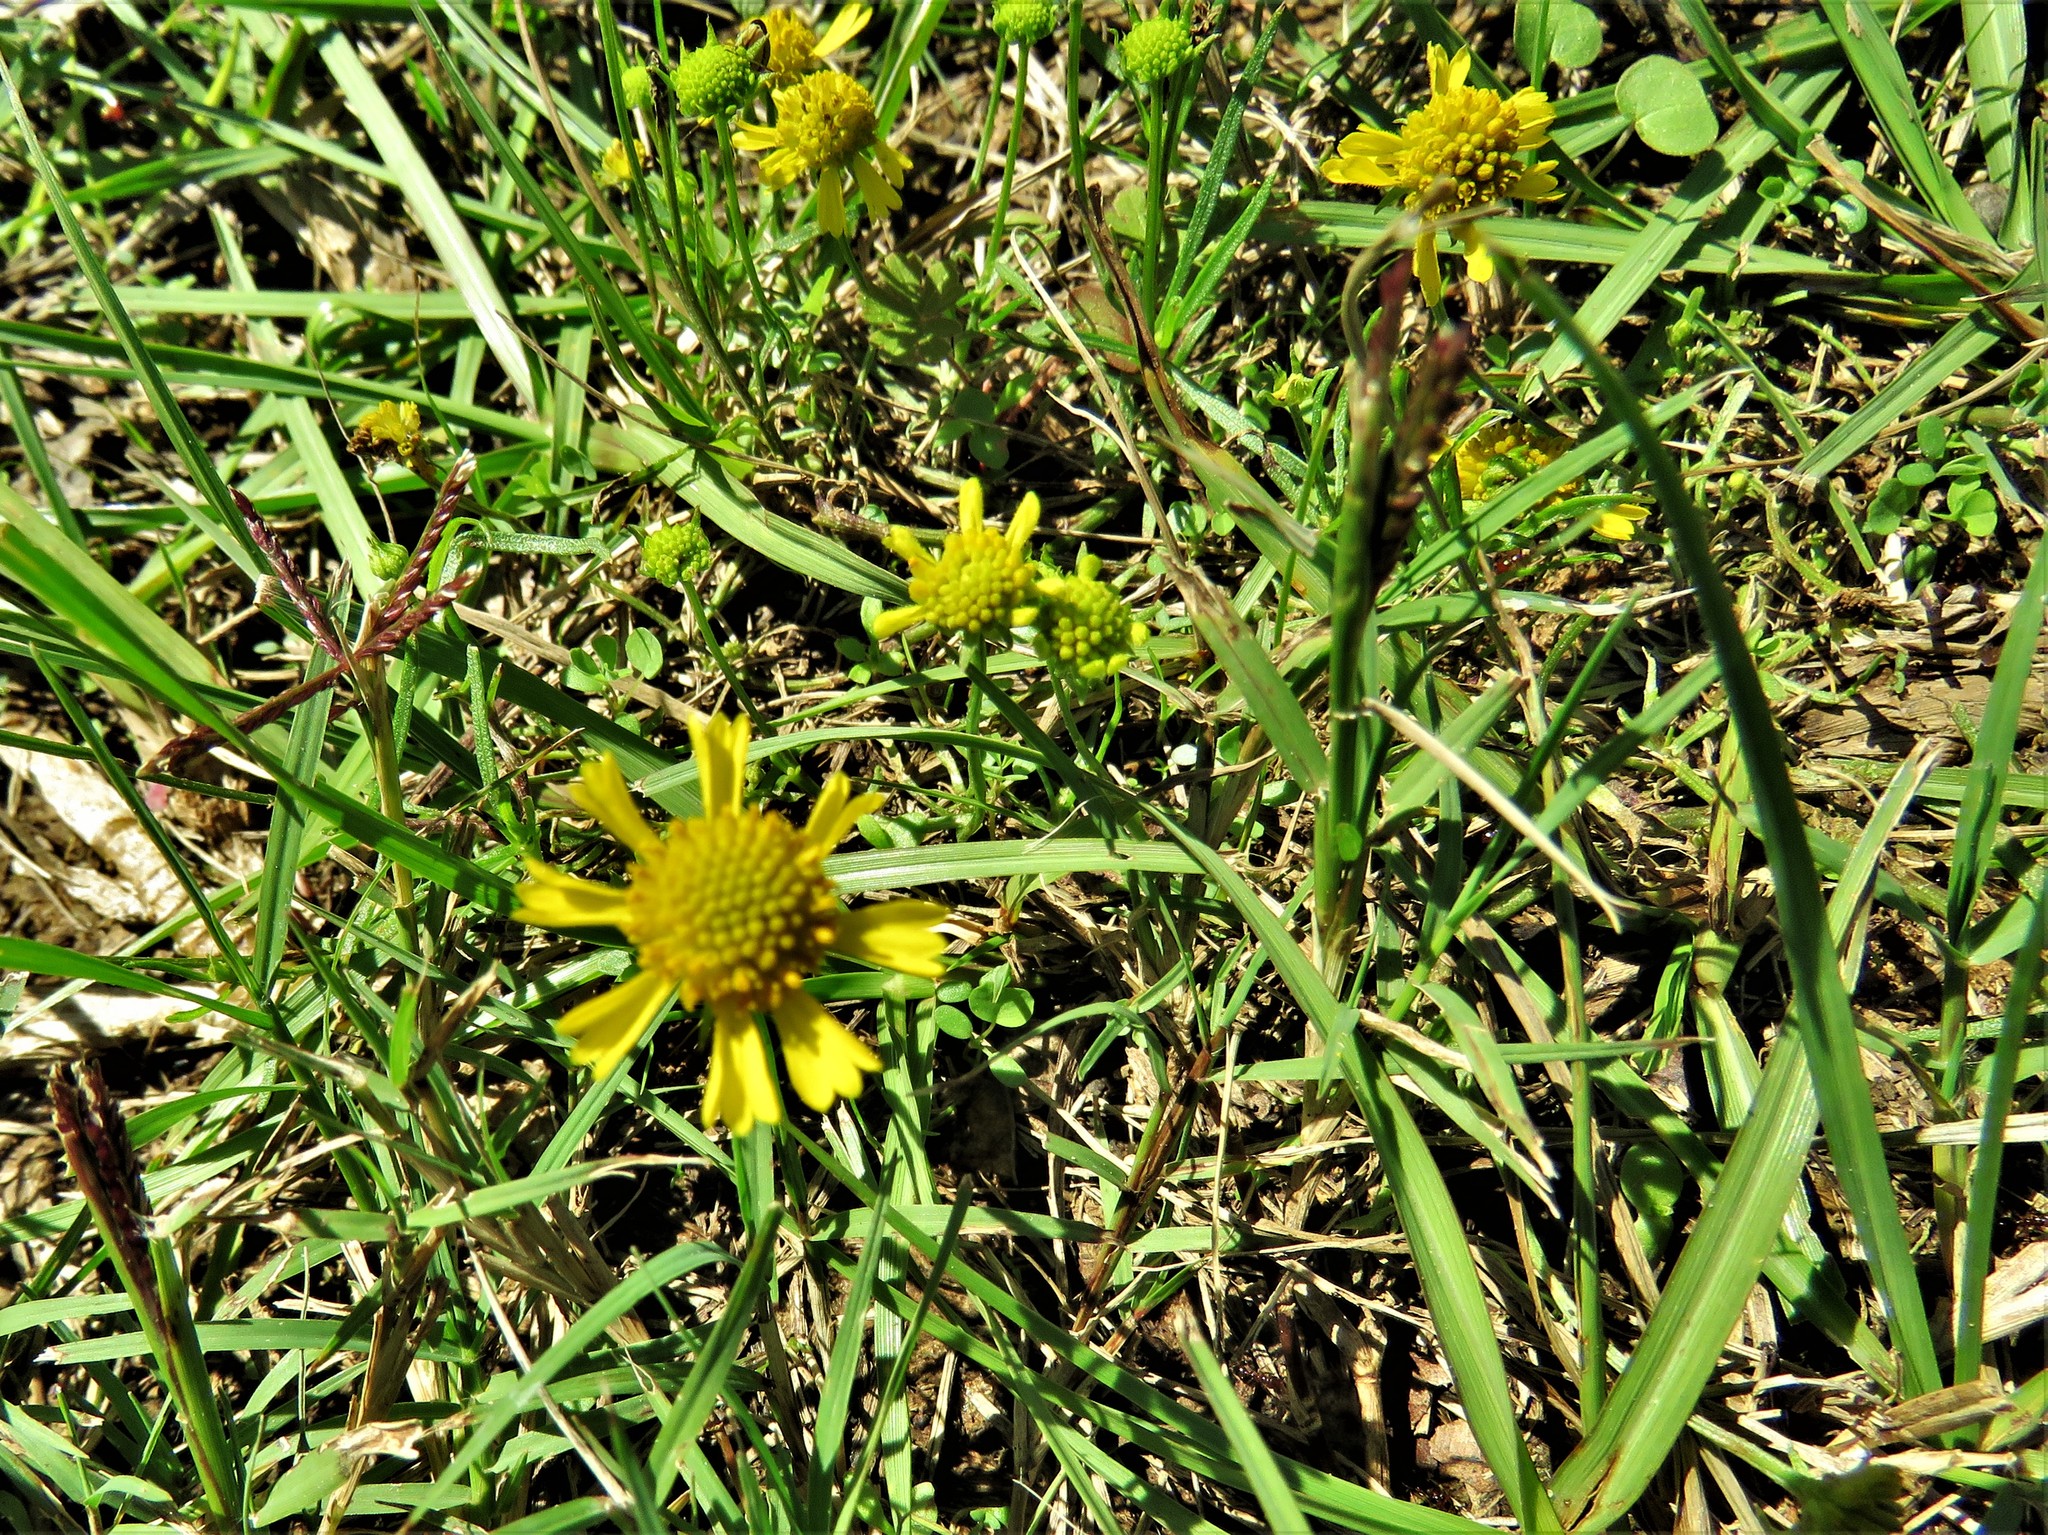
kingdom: Plantae
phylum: Tracheophyta
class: Magnoliopsida
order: Asterales
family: Asteraceae
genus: Helenium
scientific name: Helenium amarum
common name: Bitter sneezeweed
